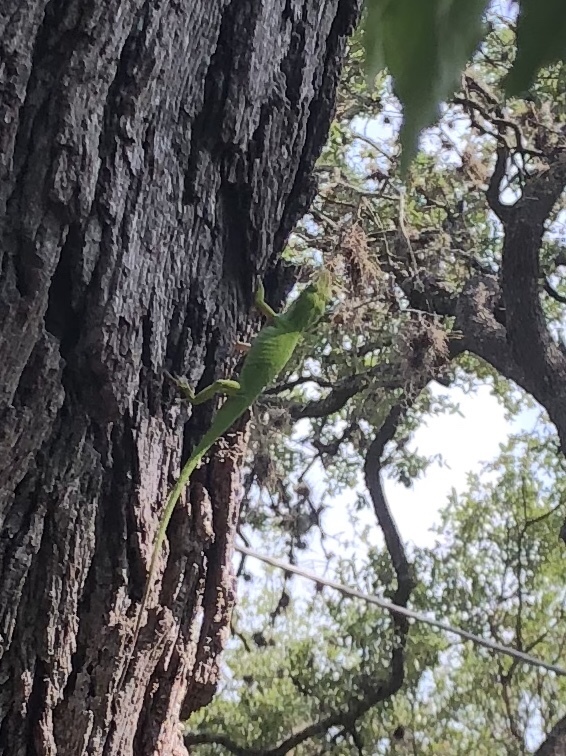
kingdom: Animalia
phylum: Chordata
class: Squamata
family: Dactyloidae
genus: Anolis
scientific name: Anolis carolinensis
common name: Green anole
